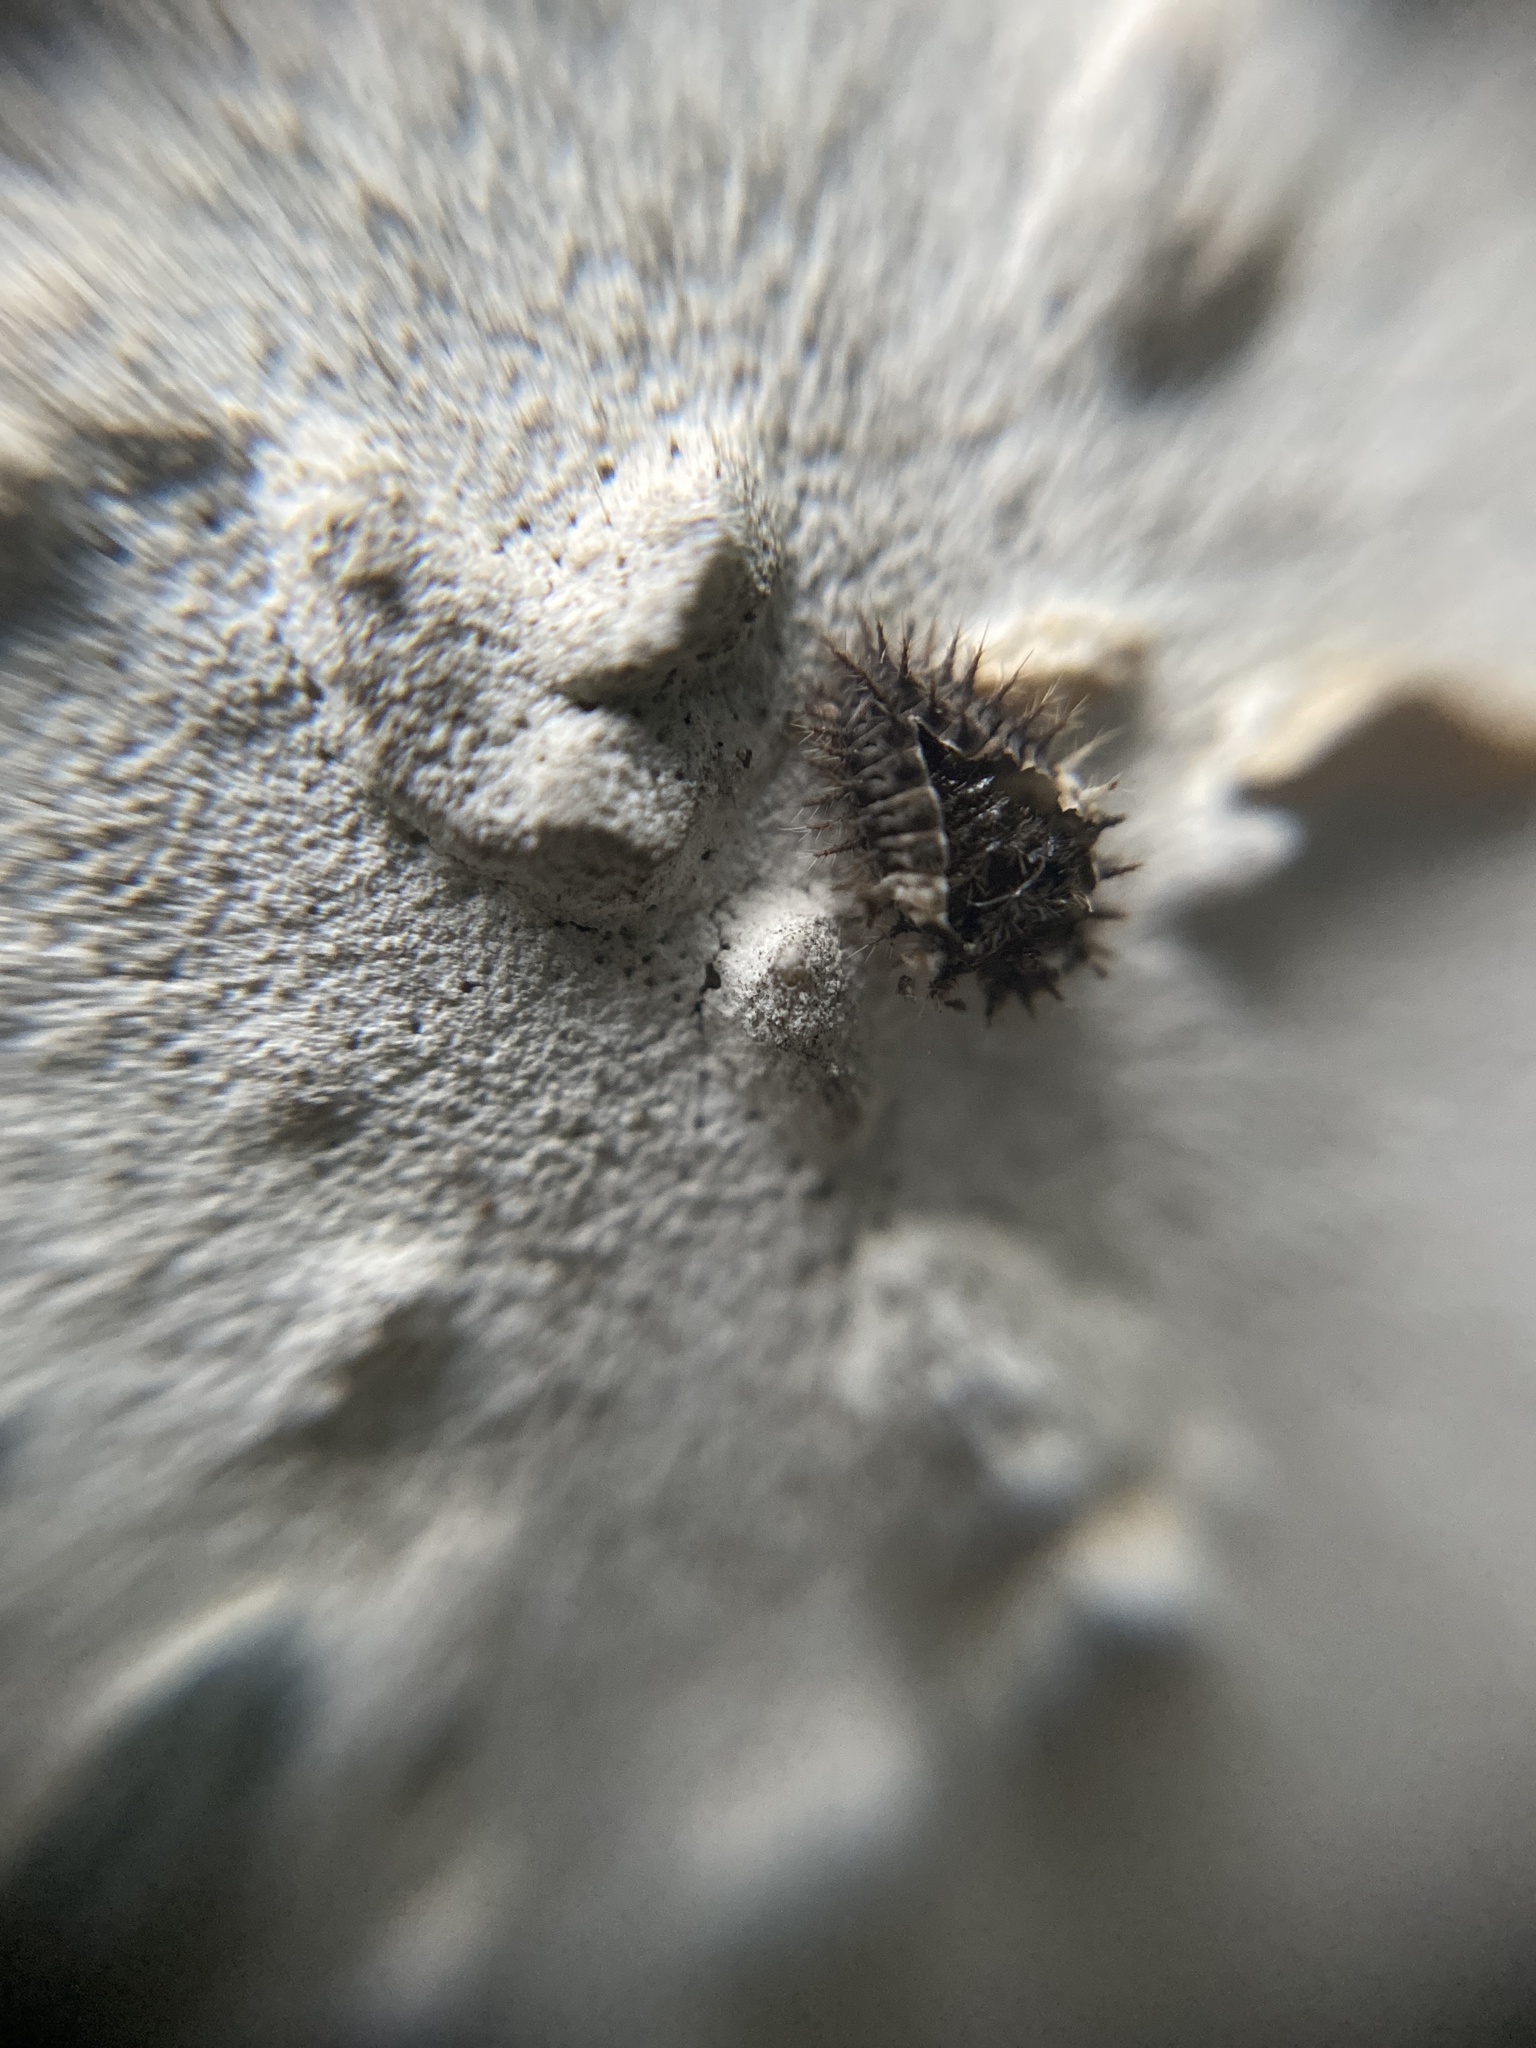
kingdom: Animalia
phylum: Arthropoda
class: Insecta
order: Coleoptera
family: Coccinellidae
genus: Chilocorus
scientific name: Chilocorus bipustulatus
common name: Heather ladybird
